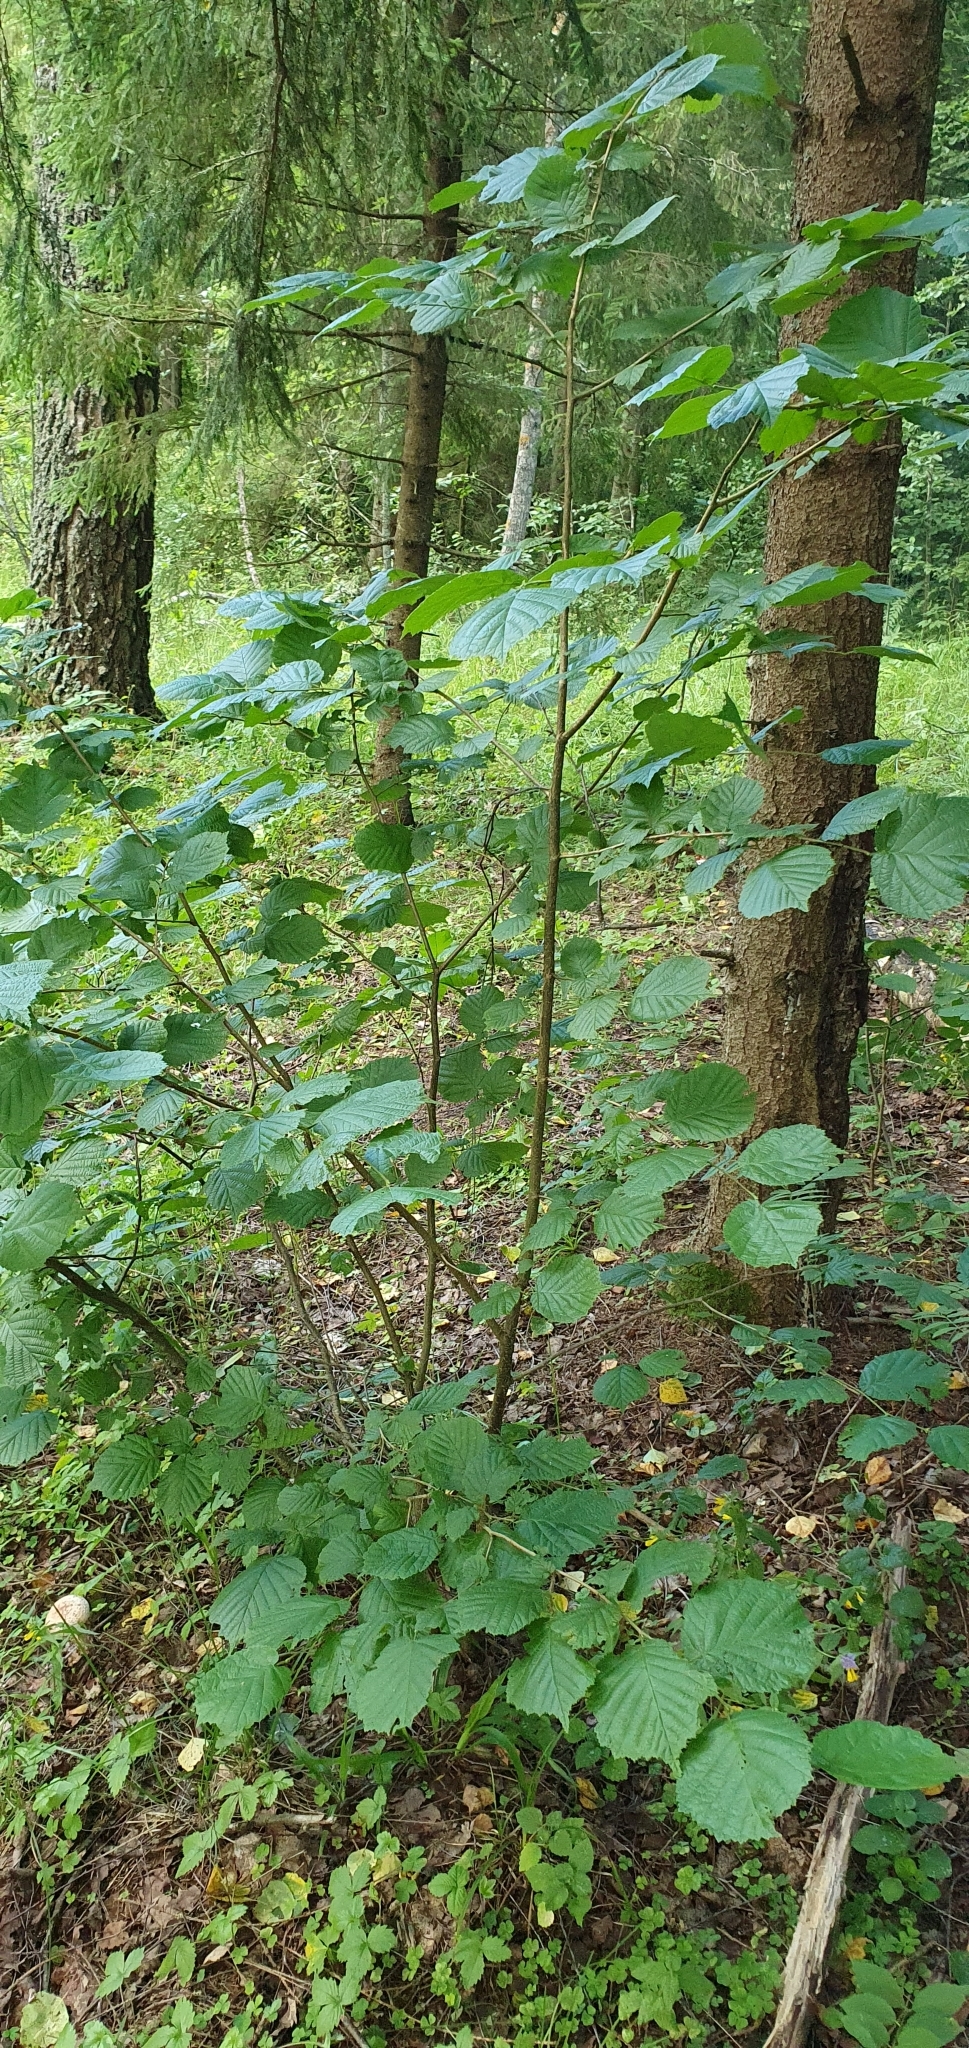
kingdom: Plantae
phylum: Tracheophyta
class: Magnoliopsida
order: Fagales
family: Betulaceae
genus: Corylus
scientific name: Corylus avellana
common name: European hazel
